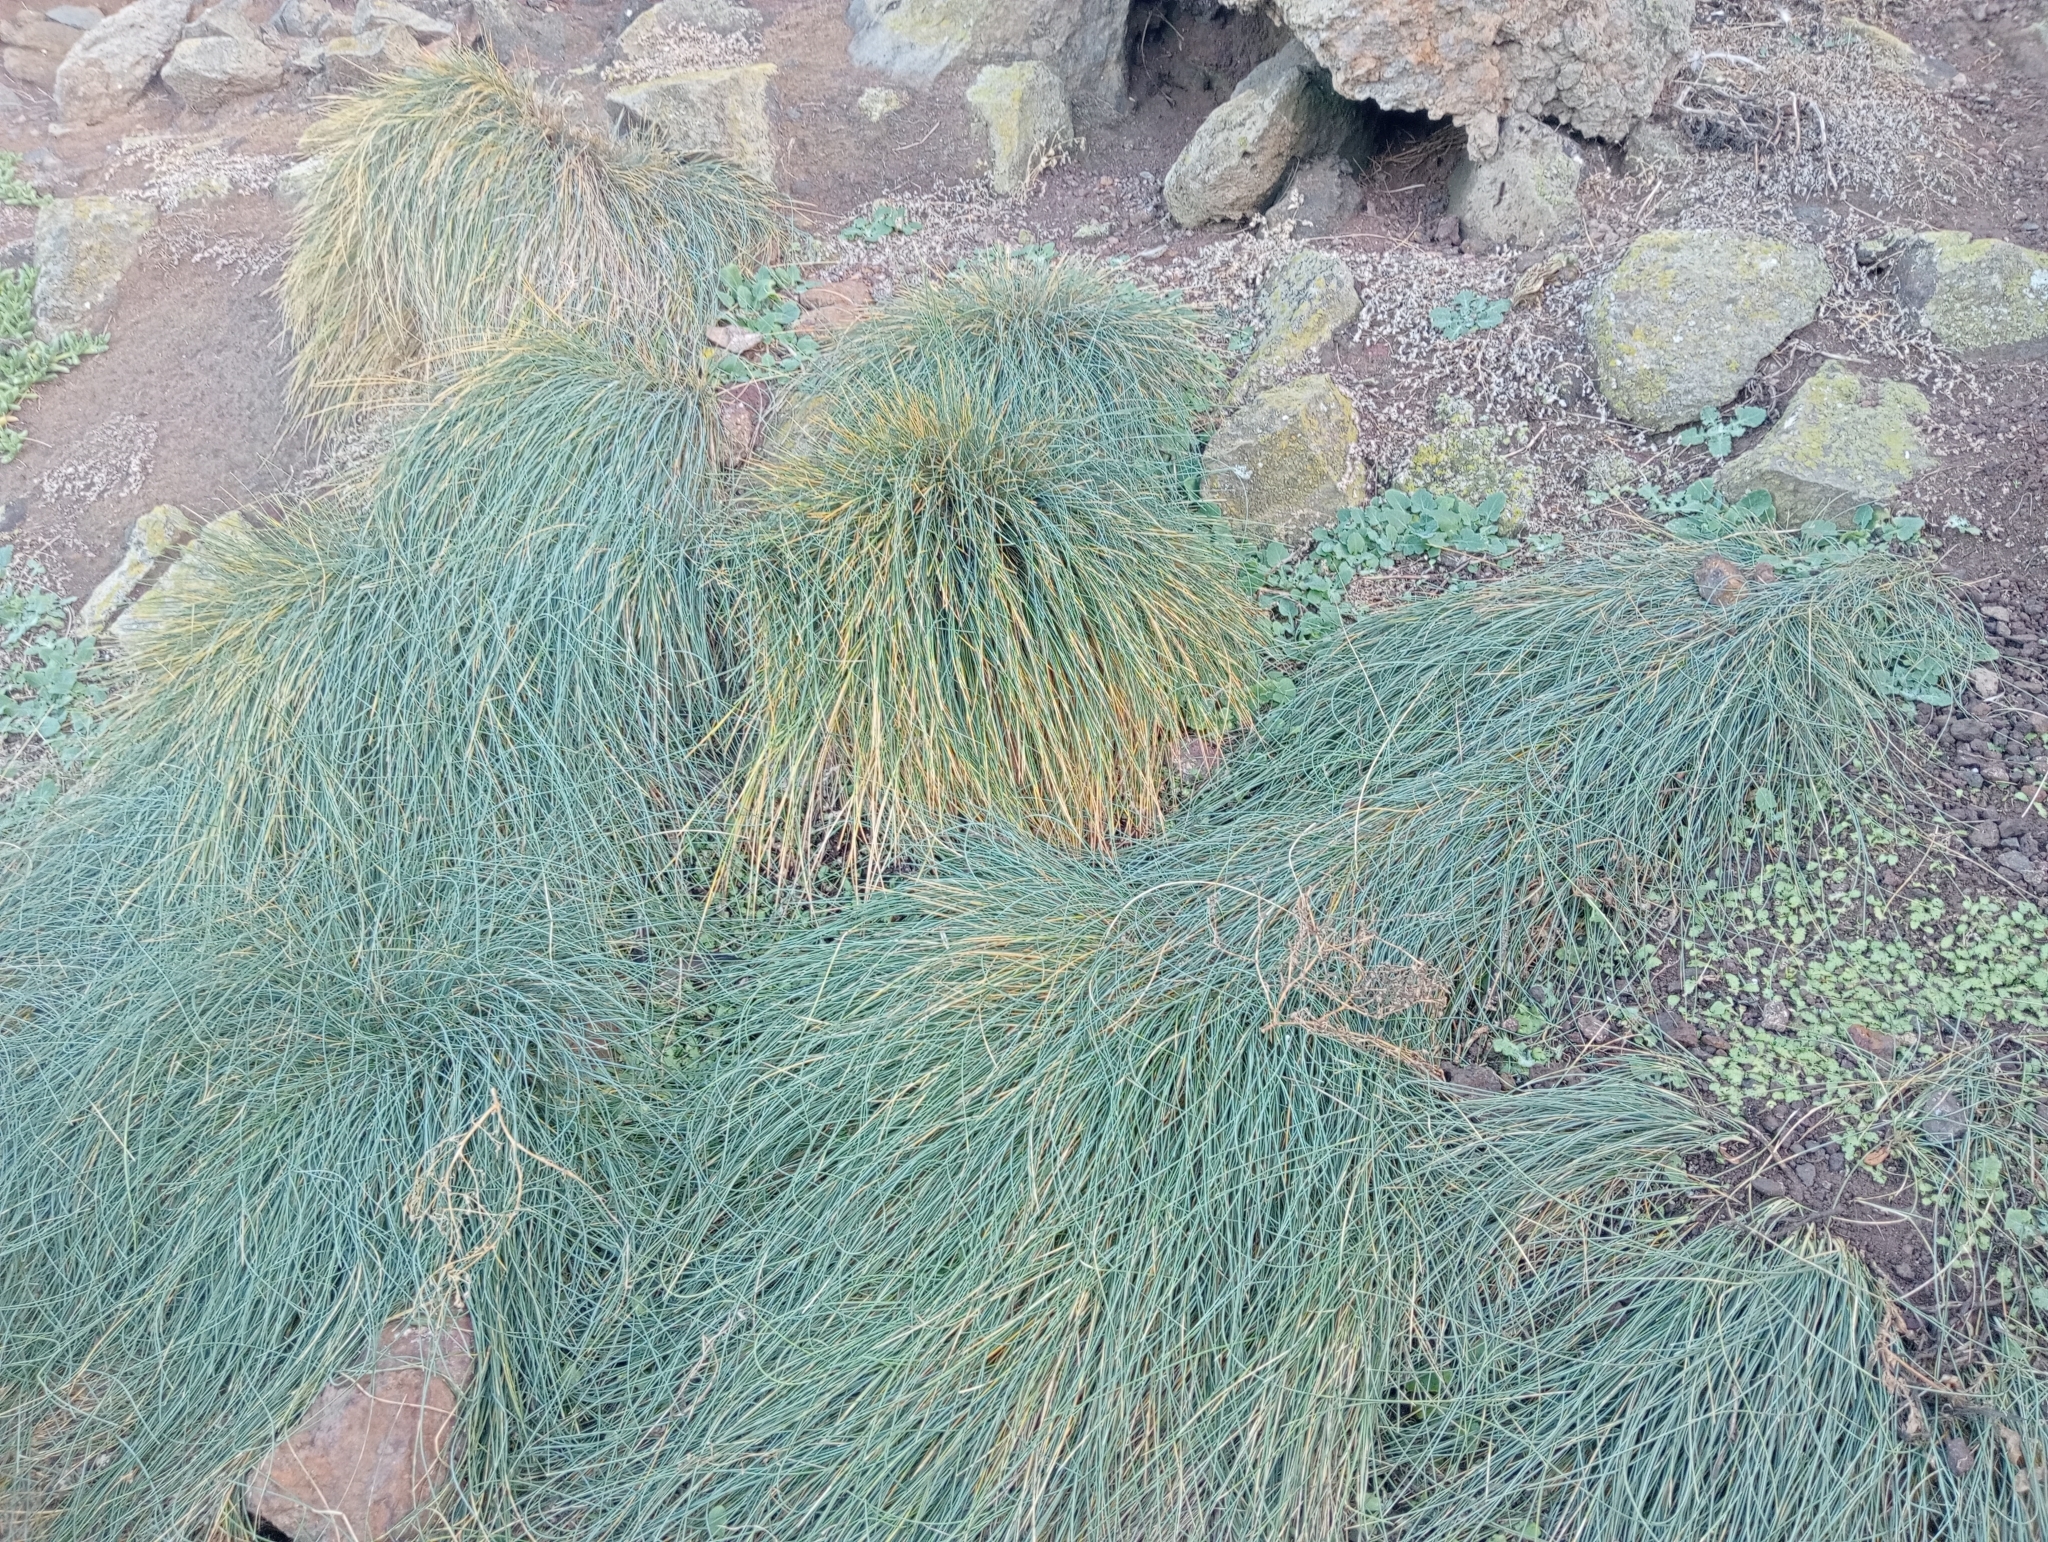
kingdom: Plantae
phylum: Tracheophyta
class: Liliopsida
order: Poales
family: Poaceae
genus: Poa
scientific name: Poa astonii
